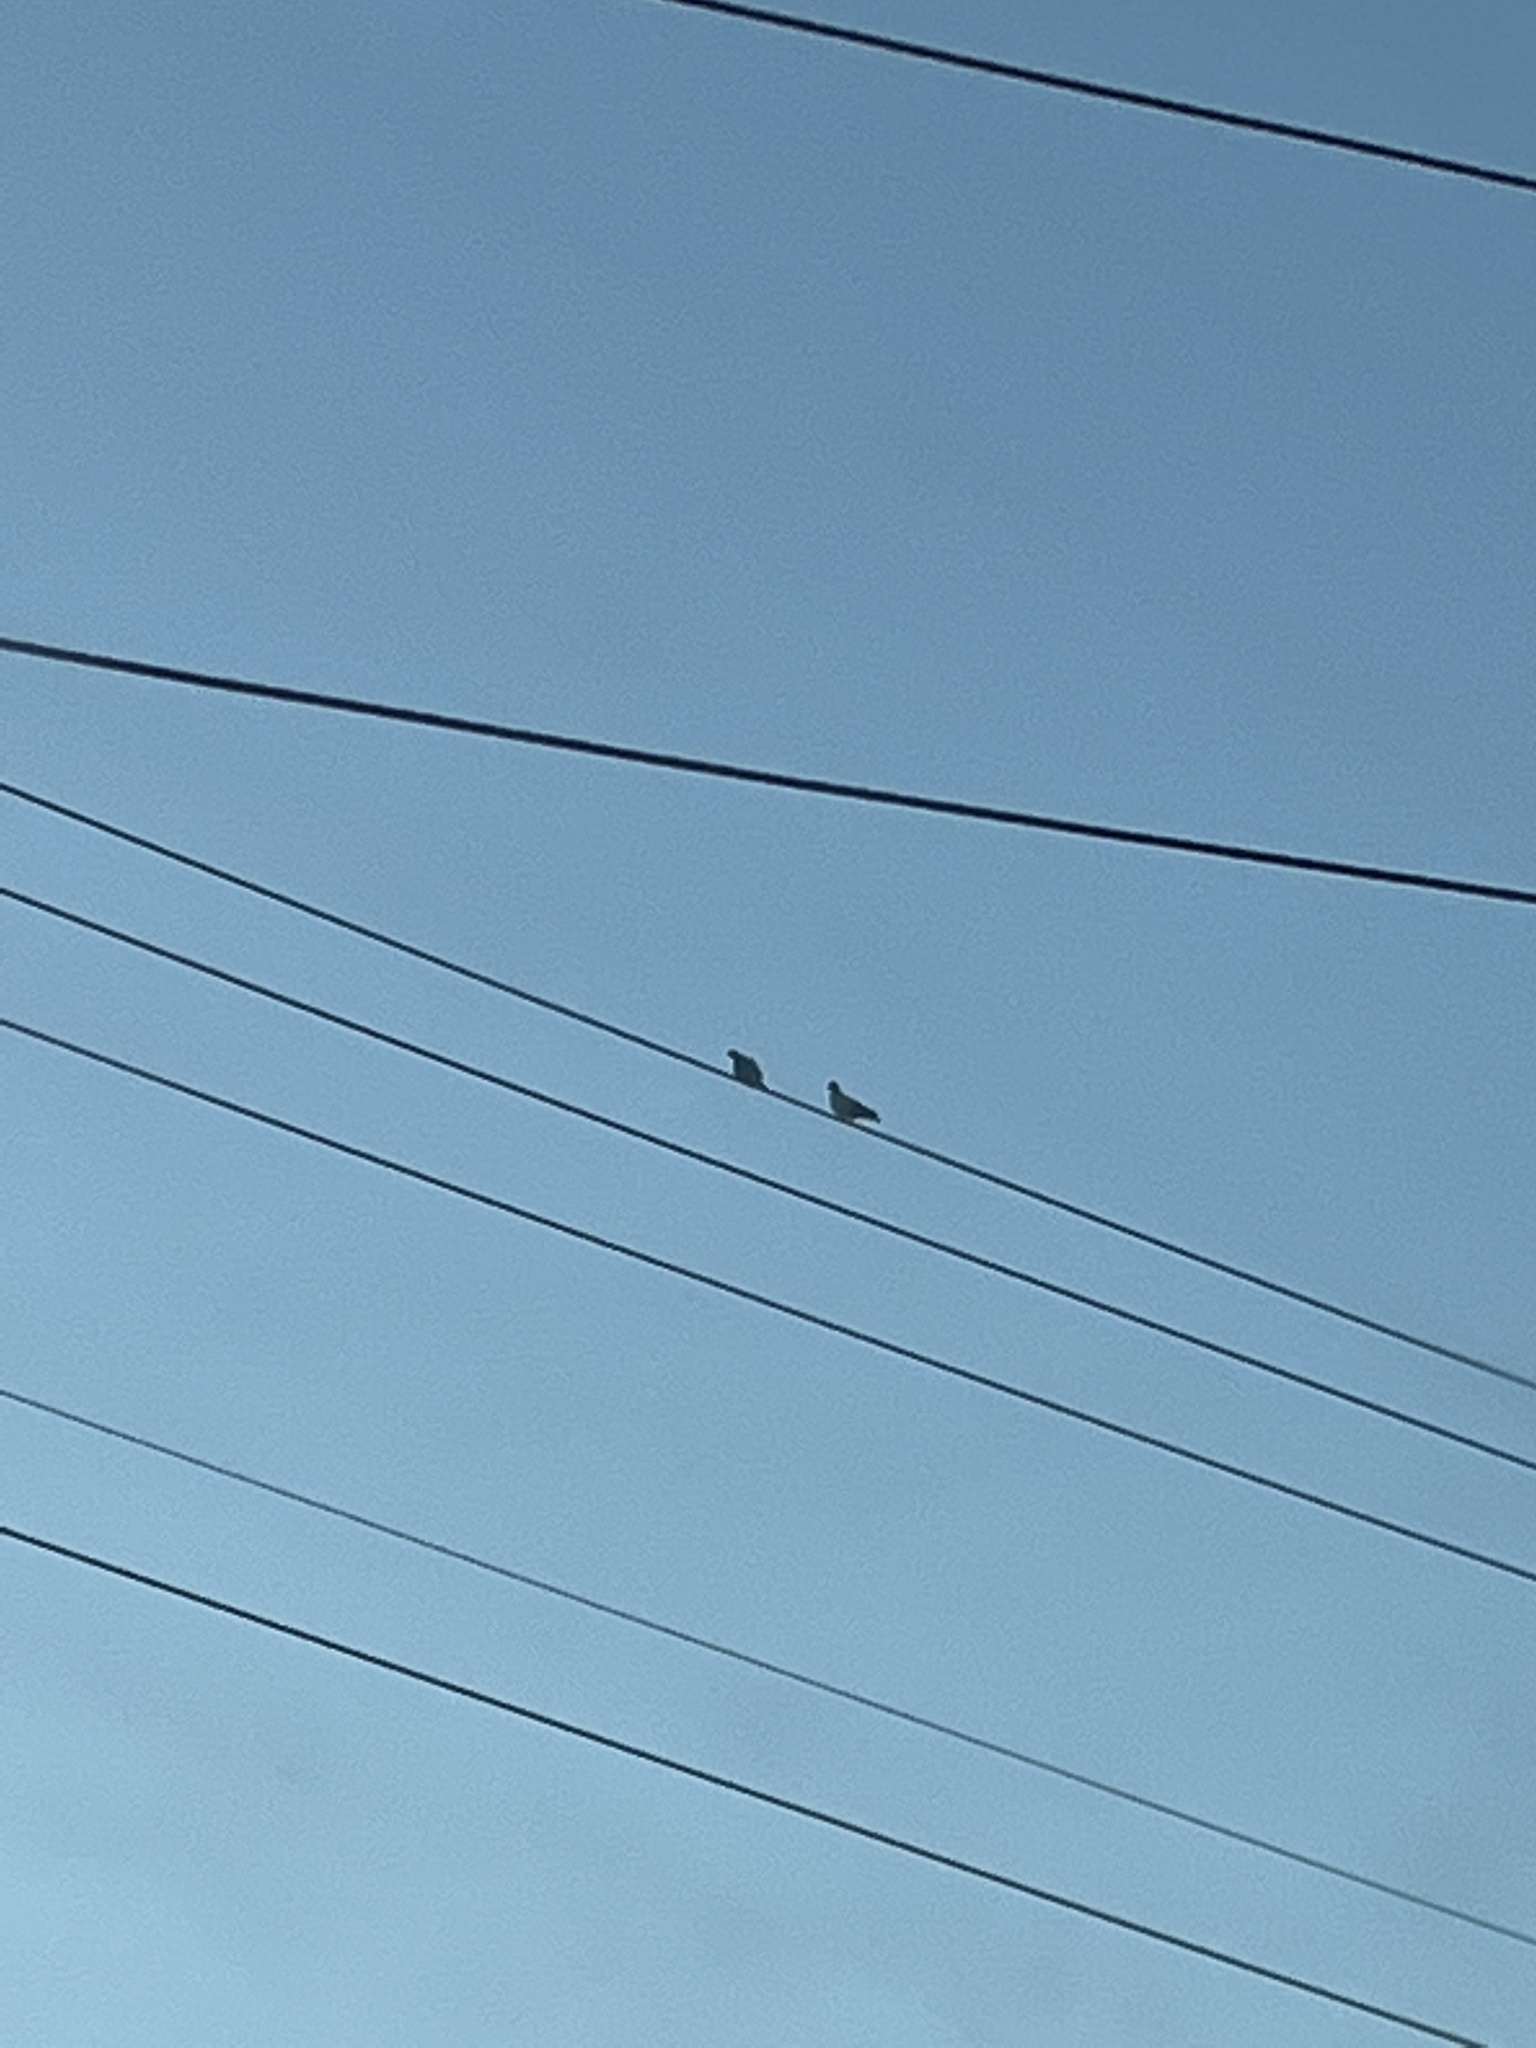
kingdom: Animalia
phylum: Chordata
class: Aves
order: Columbiformes
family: Columbidae
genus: Columba
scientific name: Columba livia
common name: Rock pigeon
